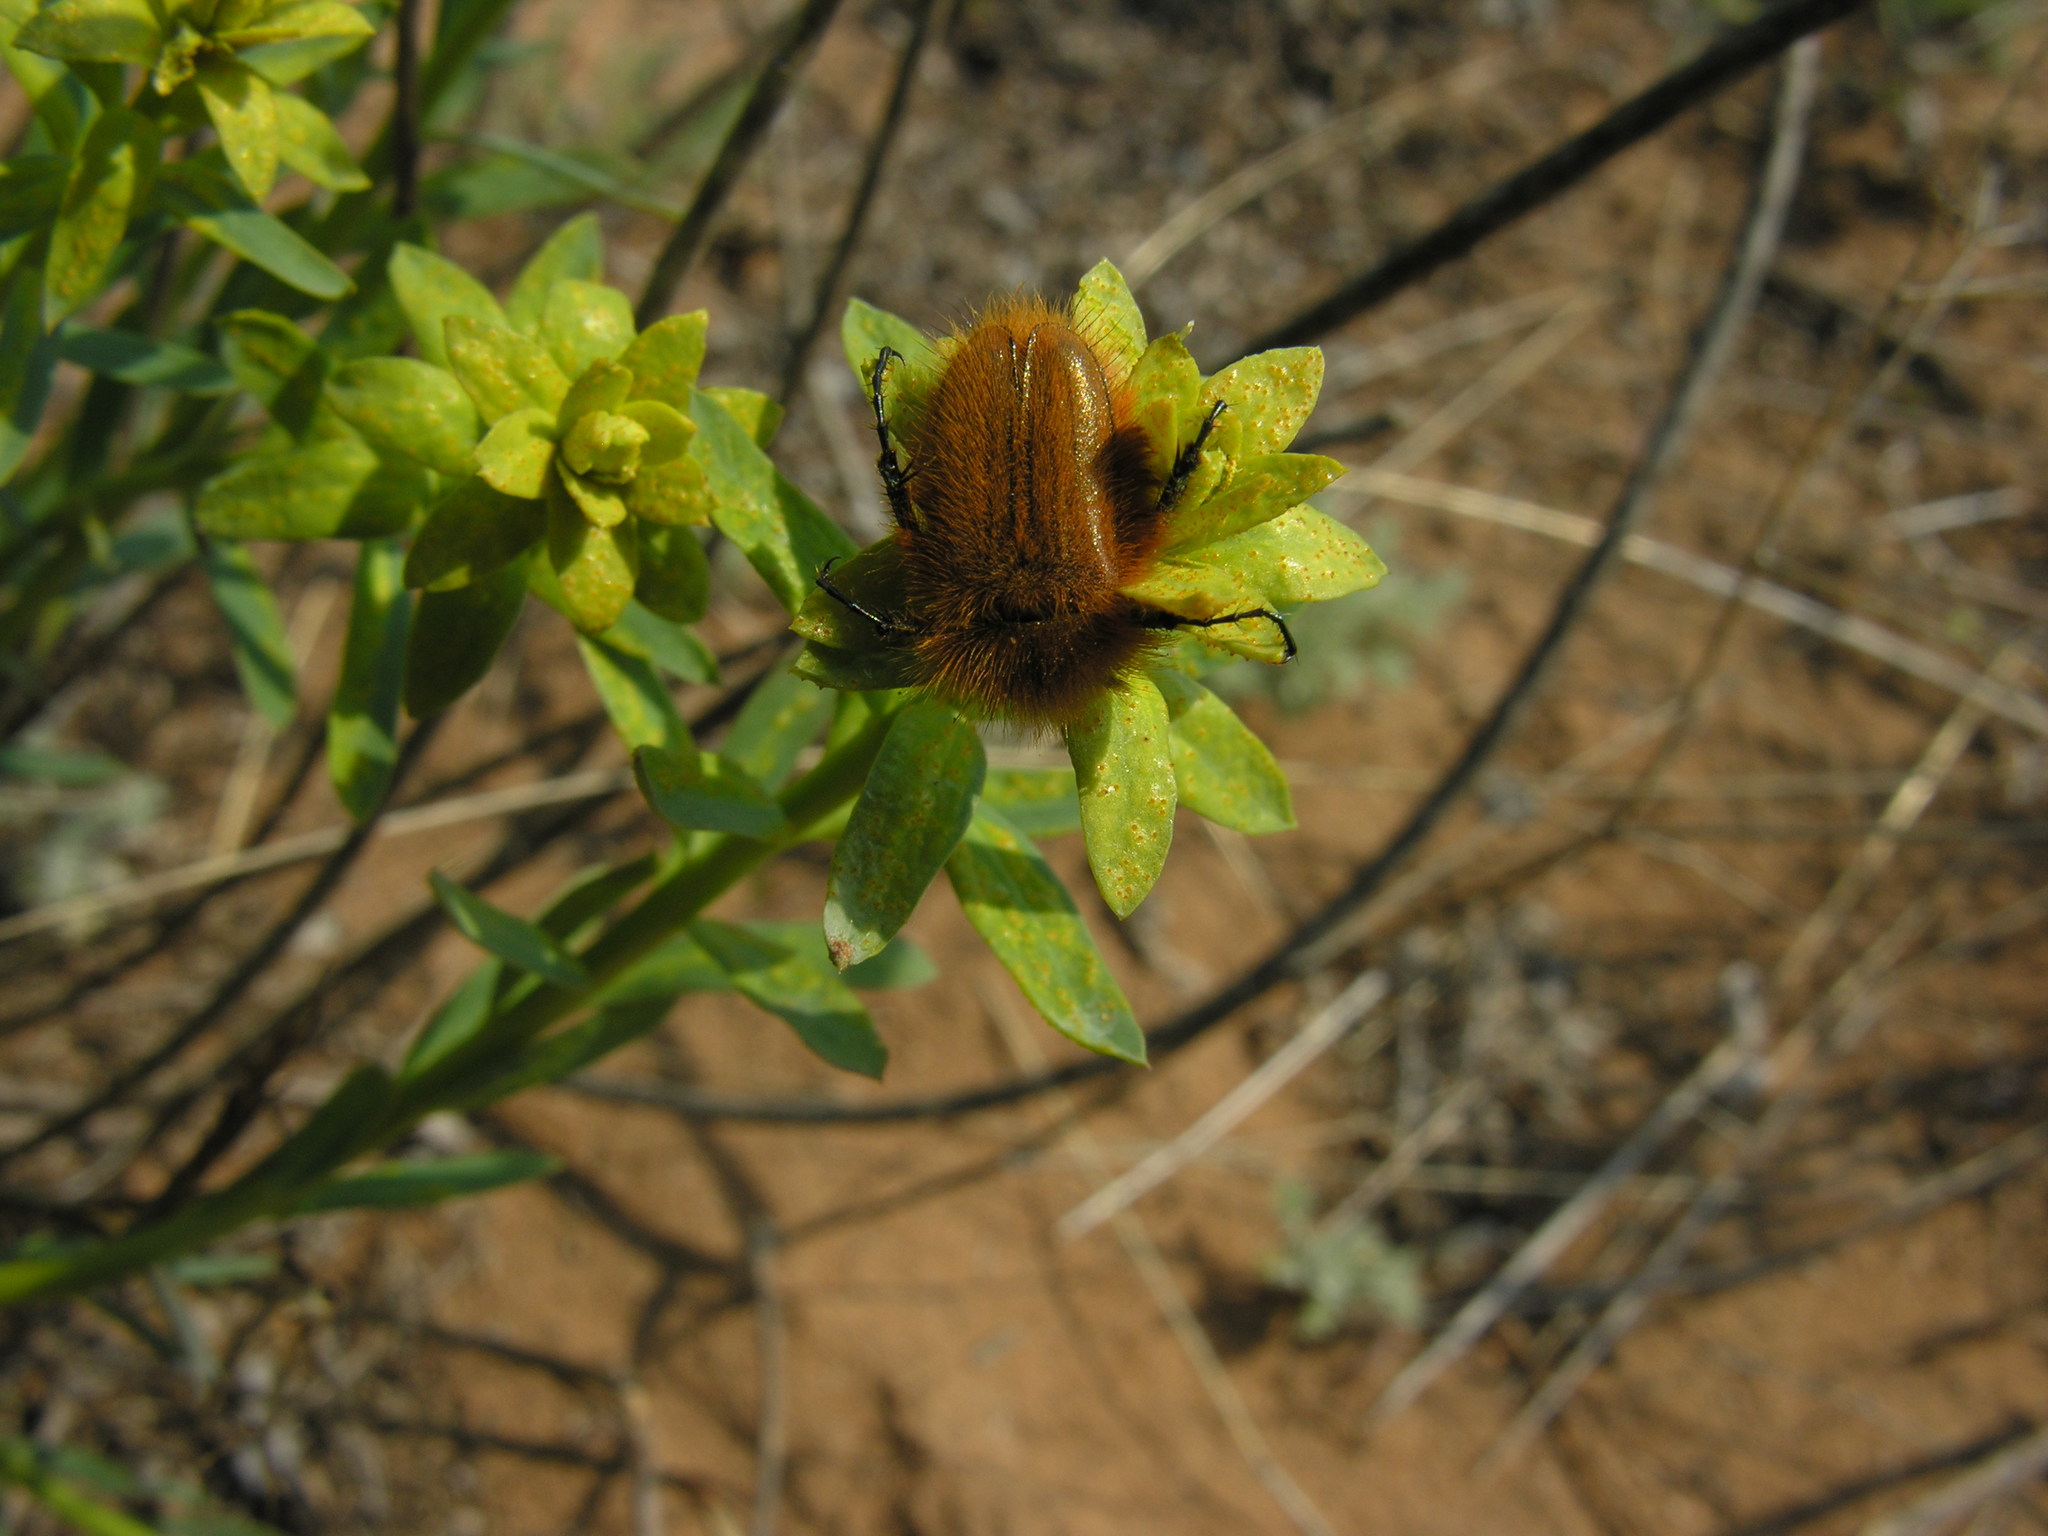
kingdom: Animalia
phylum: Arthropoda
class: Insecta
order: Coleoptera
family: Glaphyridae
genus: Pygopleurus
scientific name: Pygopleurus vulpes
